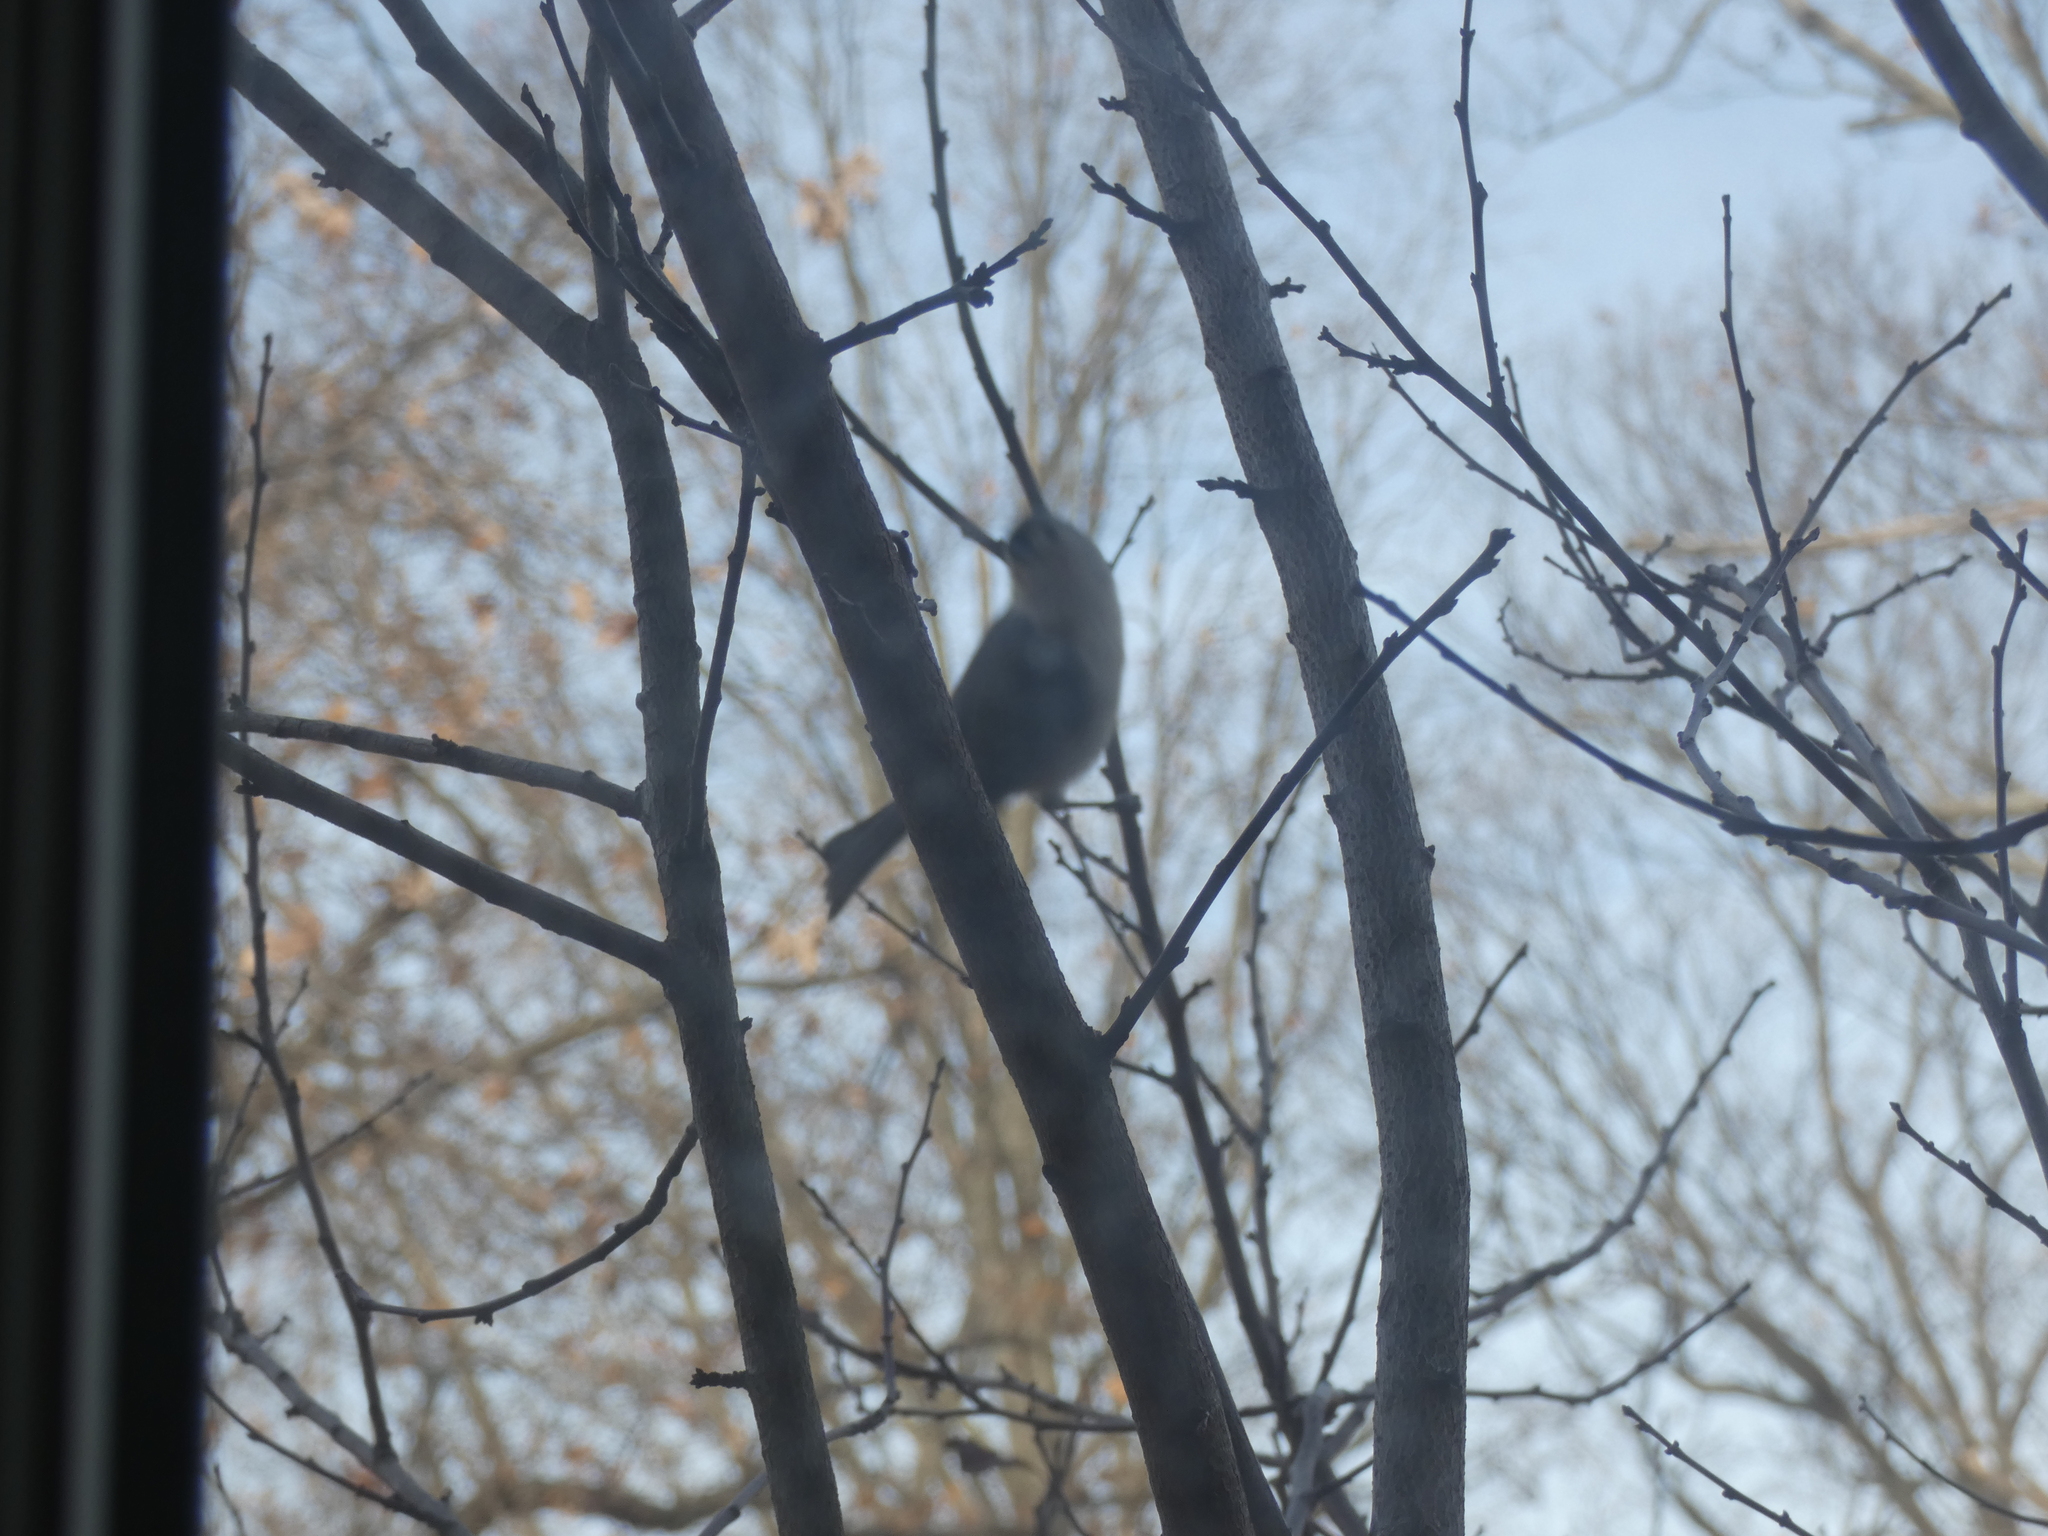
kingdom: Animalia
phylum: Chordata
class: Aves
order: Passeriformes
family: Paridae
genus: Baeolophus
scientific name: Baeolophus bicolor
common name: Tufted titmouse
